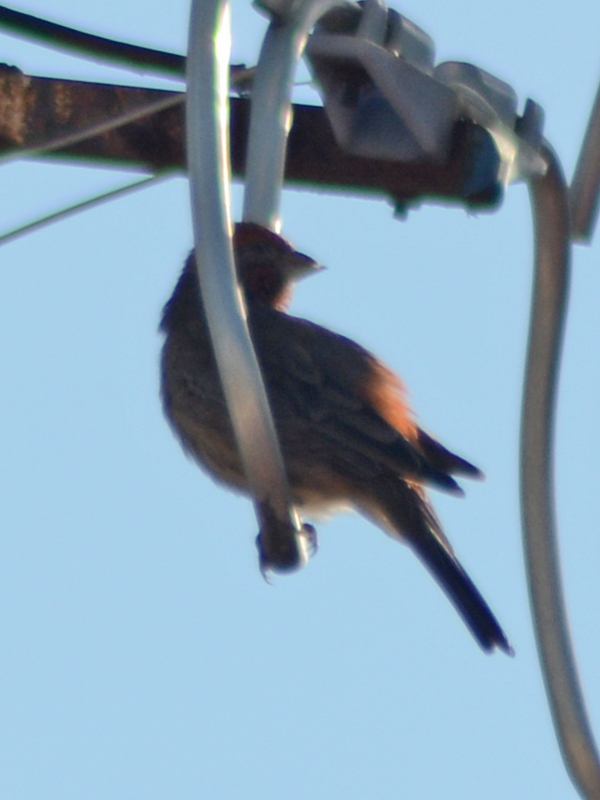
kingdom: Animalia
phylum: Chordata
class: Aves
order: Passeriformes
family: Fringillidae
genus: Haemorhous
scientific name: Haemorhous mexicanus
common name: House finch
